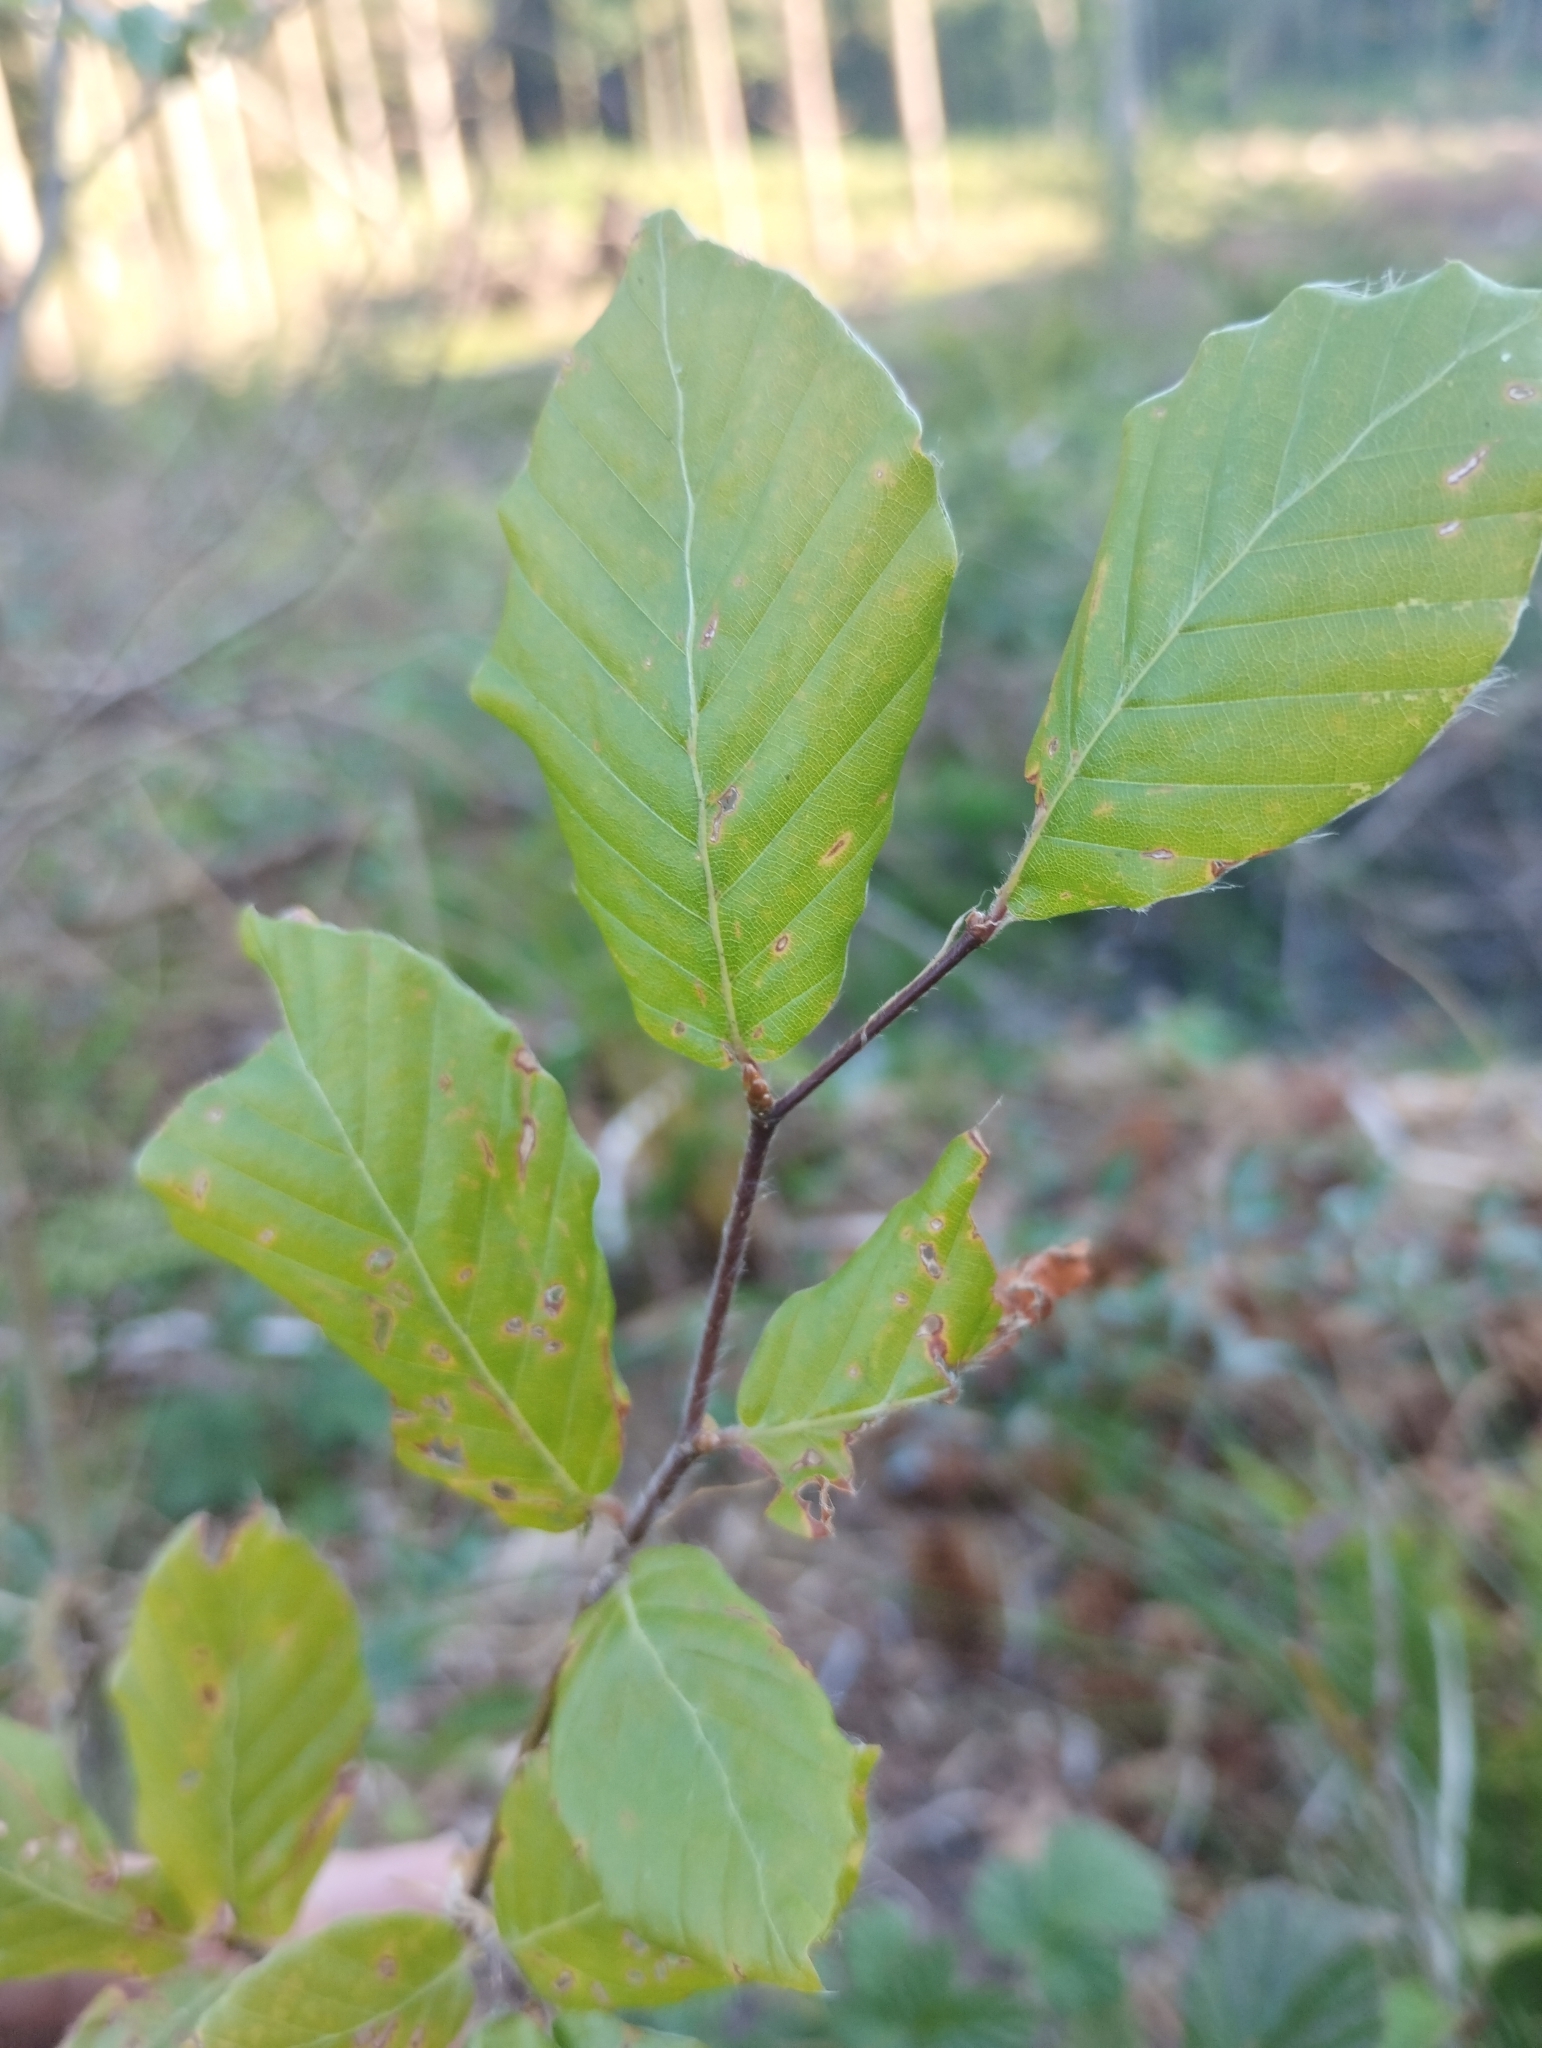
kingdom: Plantae
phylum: Tracheophyta
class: Magnoliopsida
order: Fagales
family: Fagaceae
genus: Fagus
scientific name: Fagus sylvatica
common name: Beech
